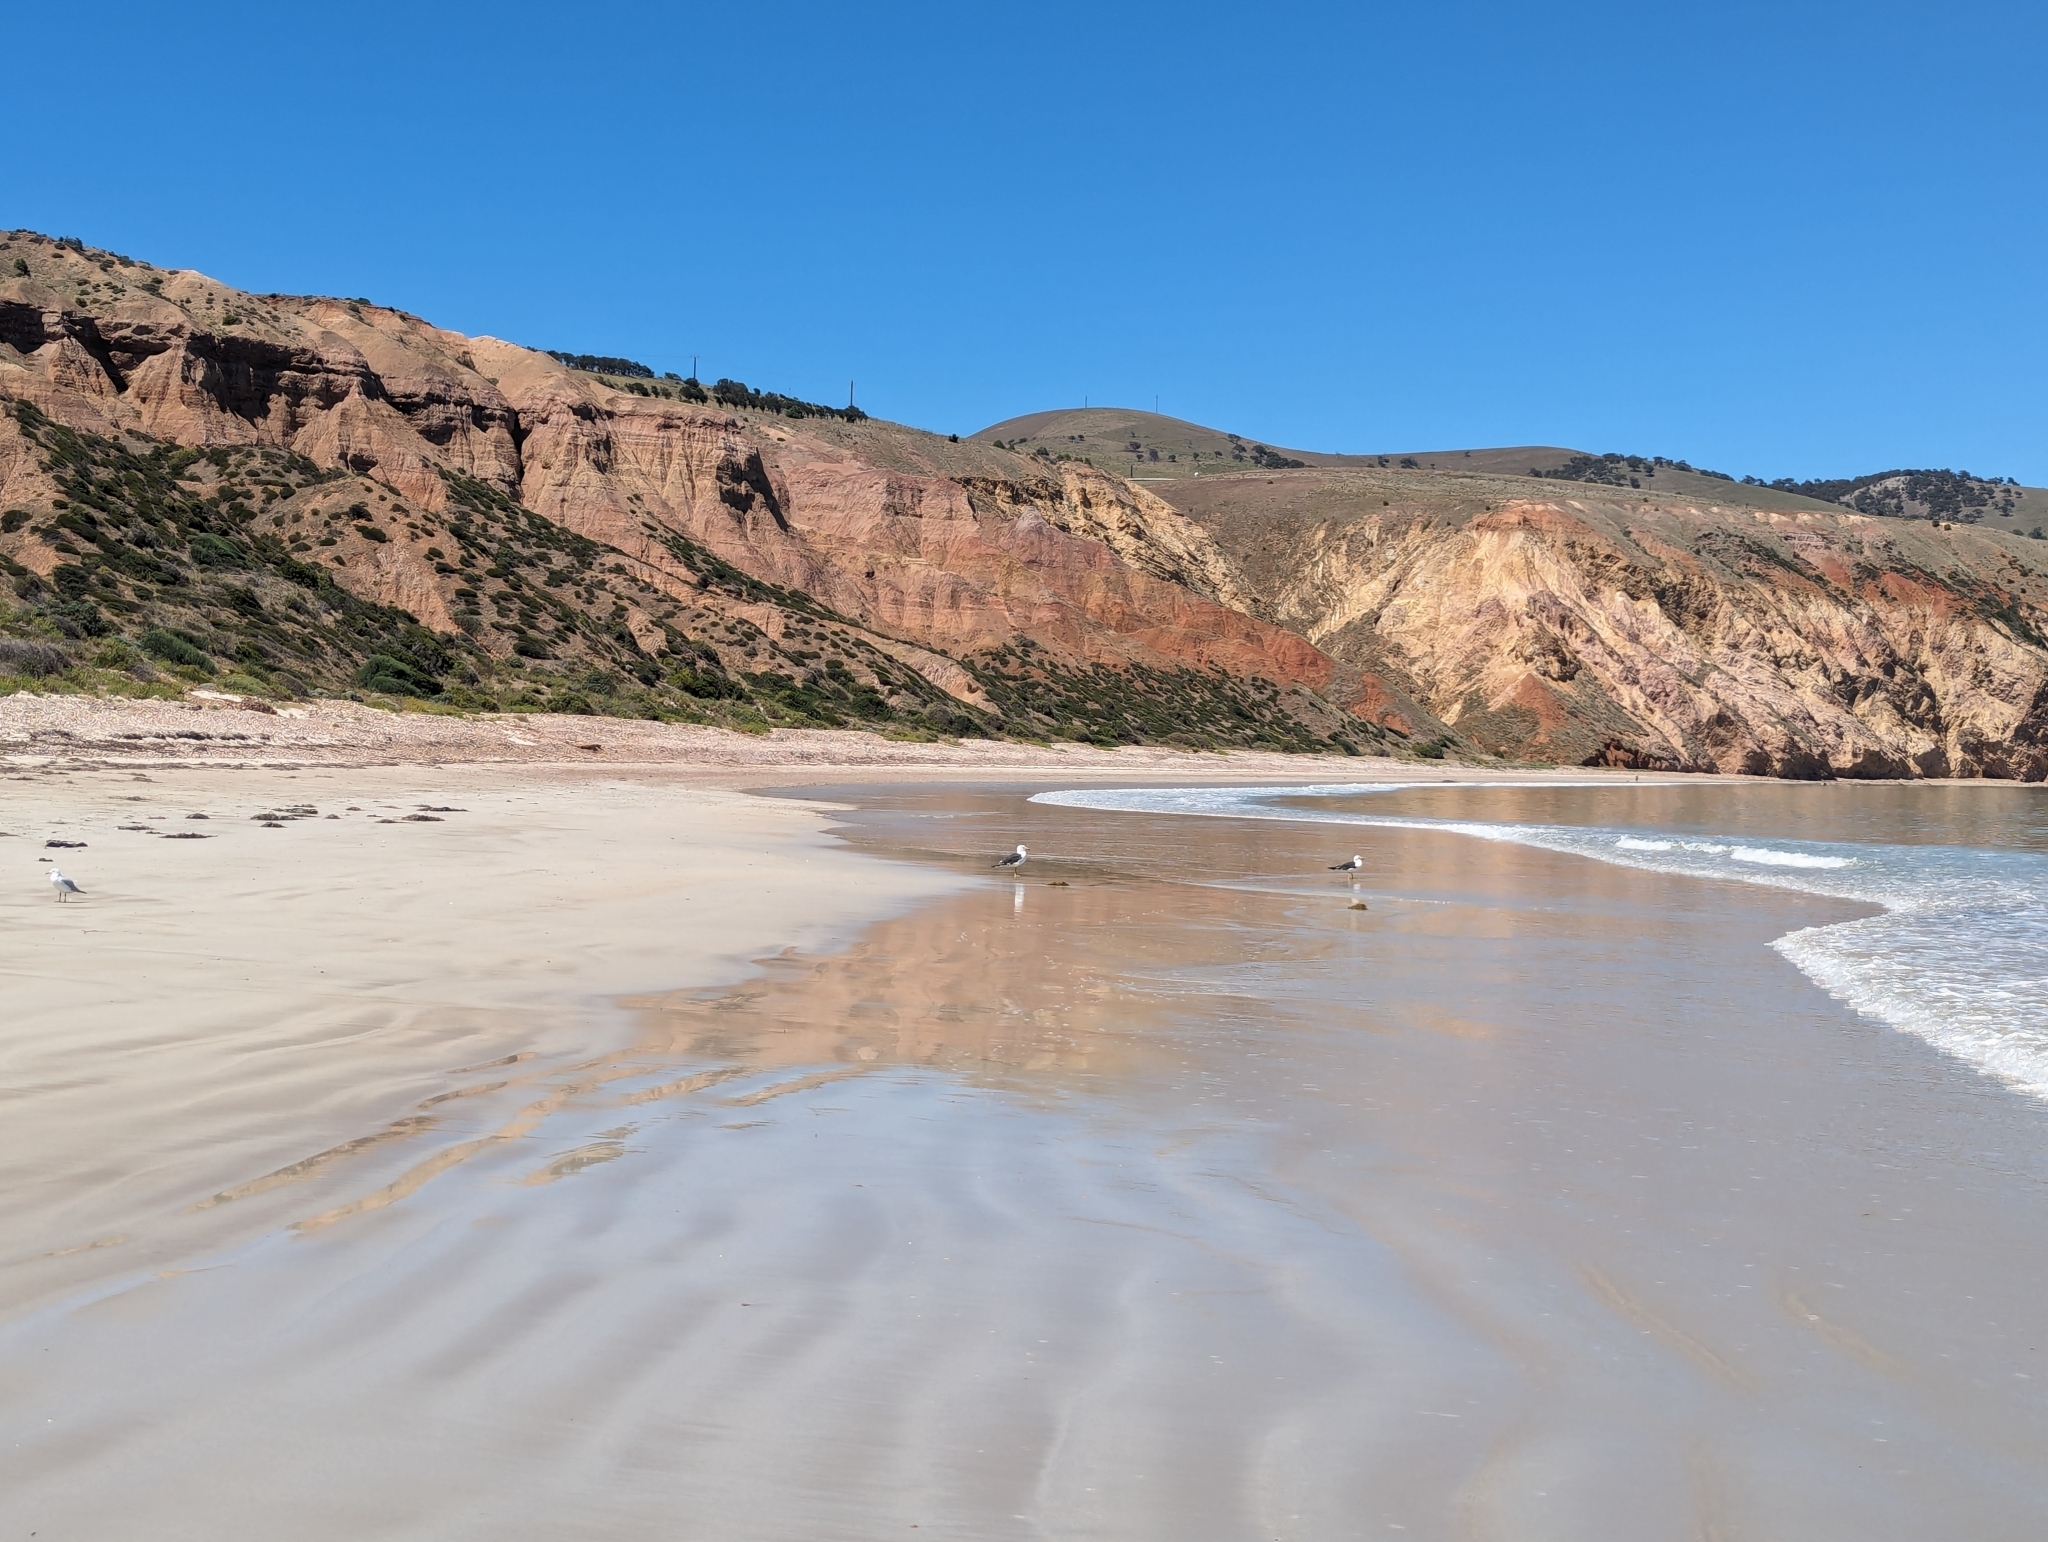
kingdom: Animalia
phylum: Chordata
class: Aves
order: Charadriiformes
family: Laridae
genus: Larus
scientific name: Larus pacificus
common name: Pacific gull
